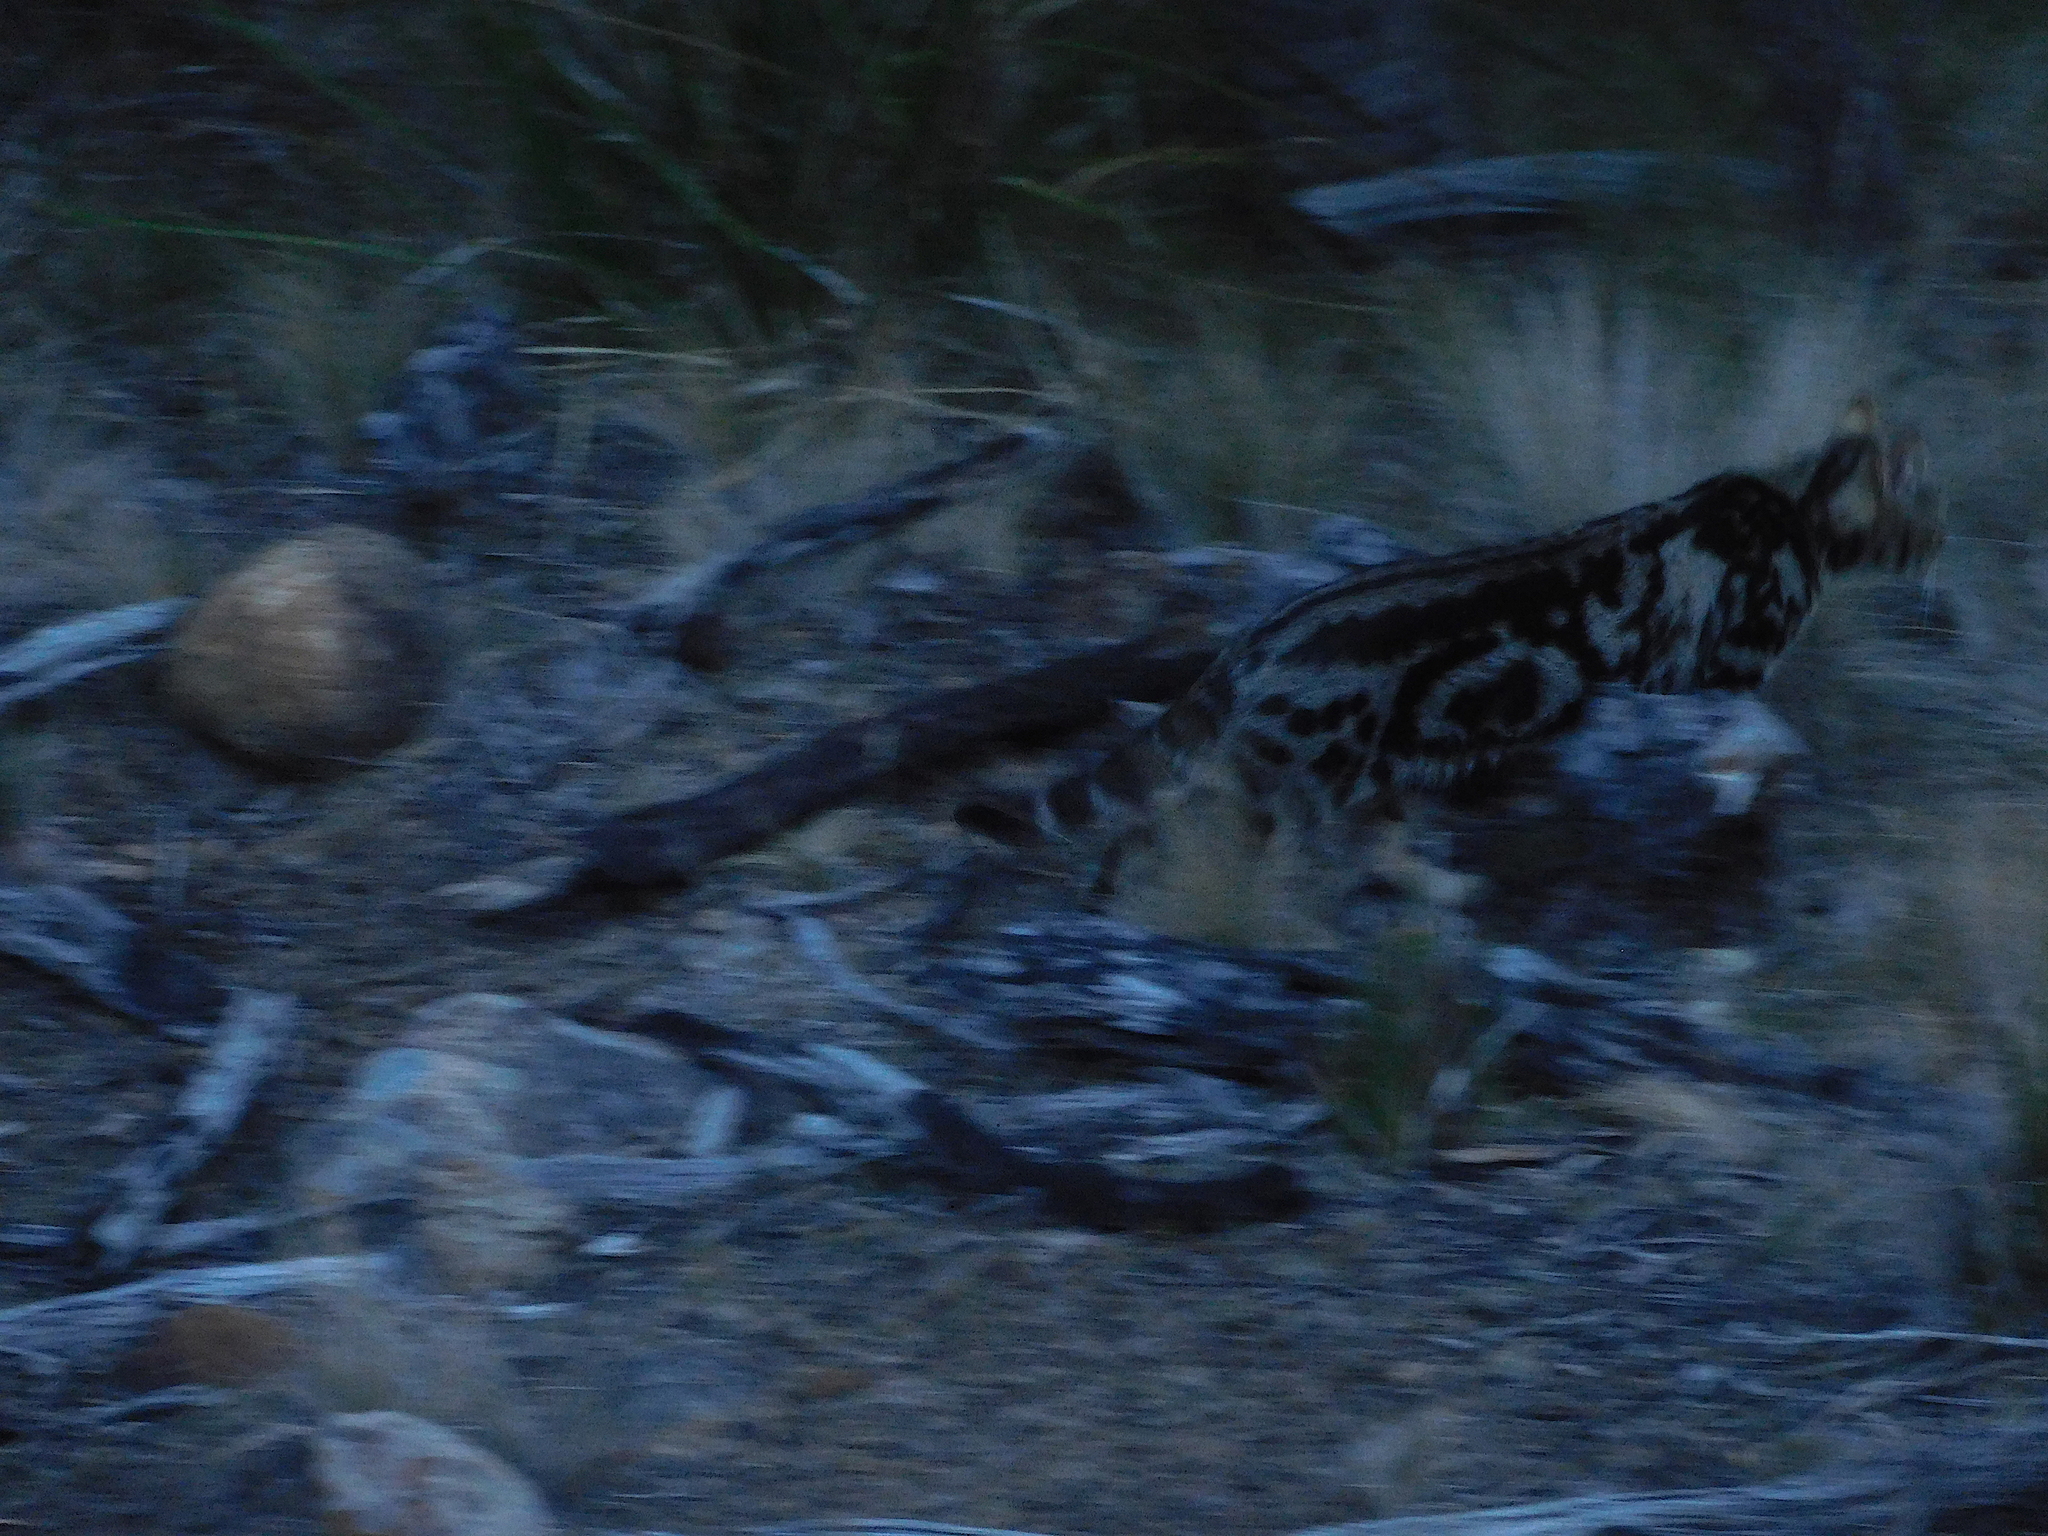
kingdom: Animalia
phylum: Chordata
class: Mammalia
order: Carnivora
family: Felidae
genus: Felis
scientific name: Felis catus
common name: Domestic cat
